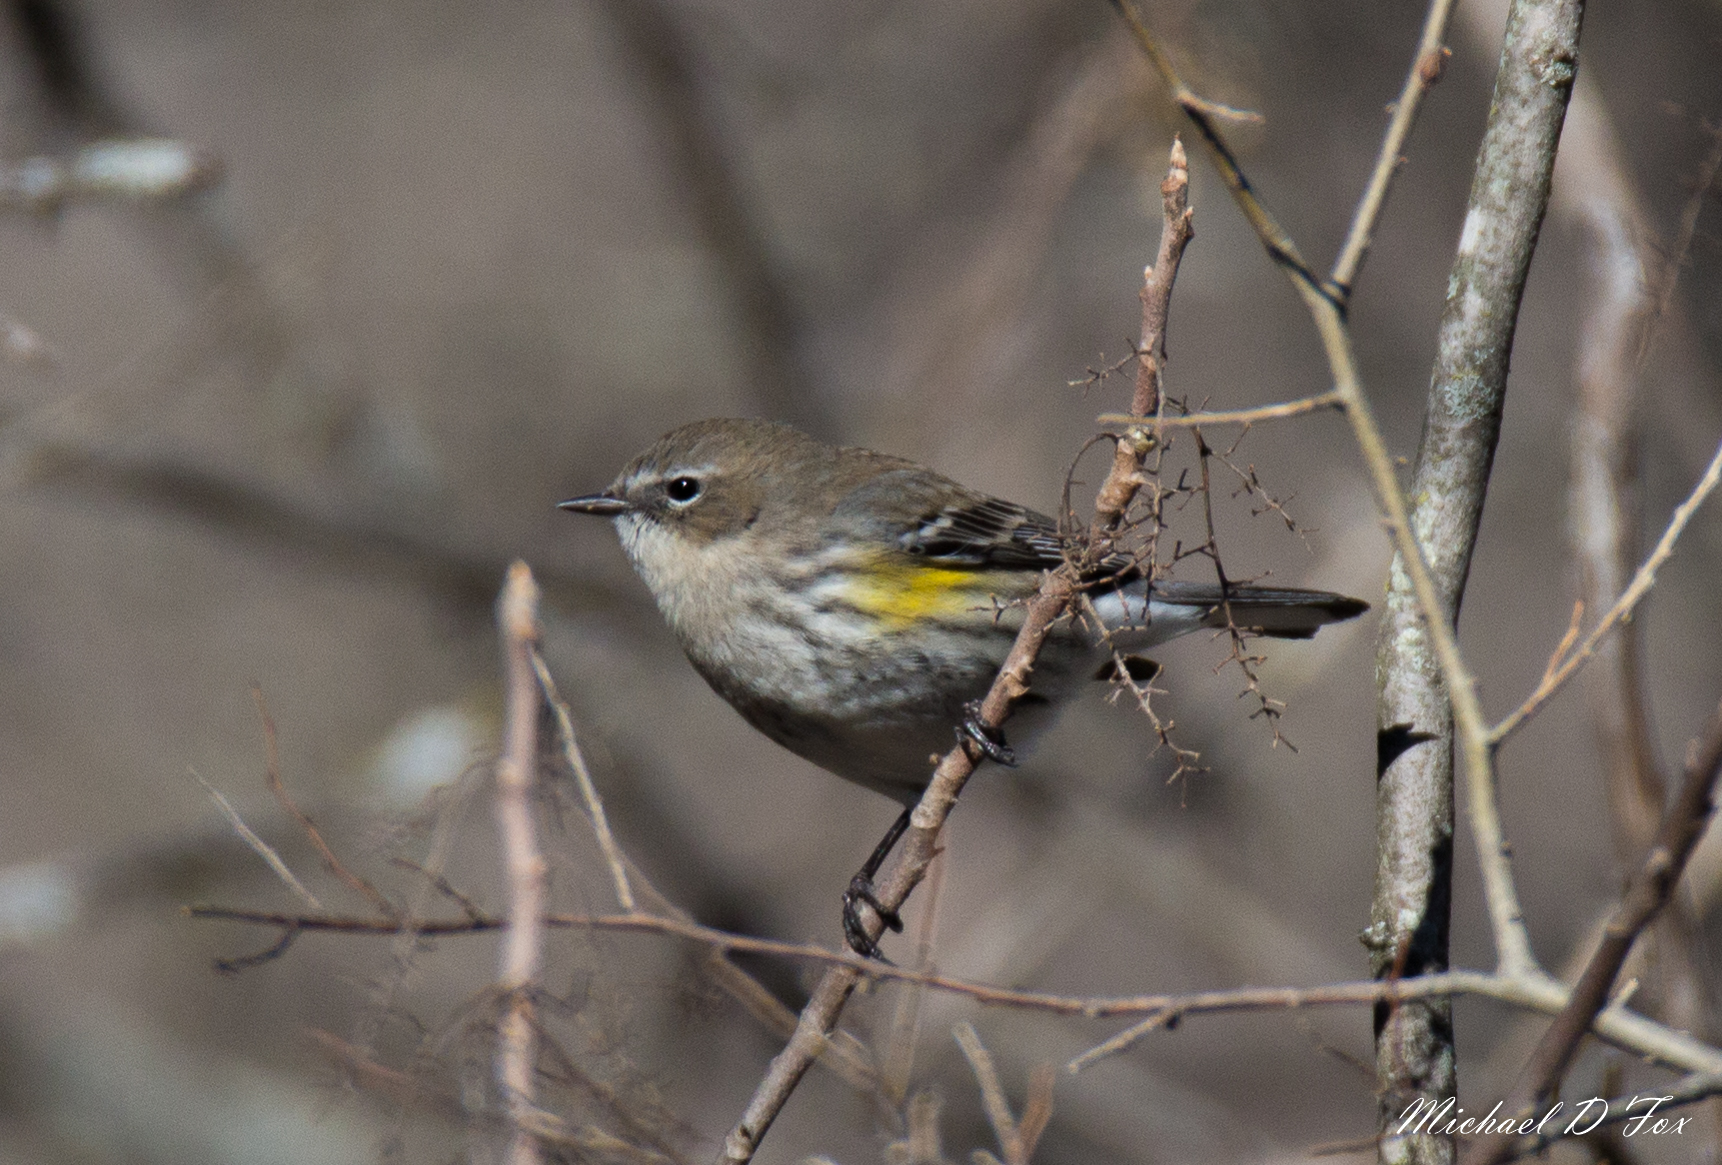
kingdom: Animalia
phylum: Chordata
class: Aves
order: Passeriformes
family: Parulidae
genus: Setophaga
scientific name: Setophaga coronata
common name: Myrtle warbler
